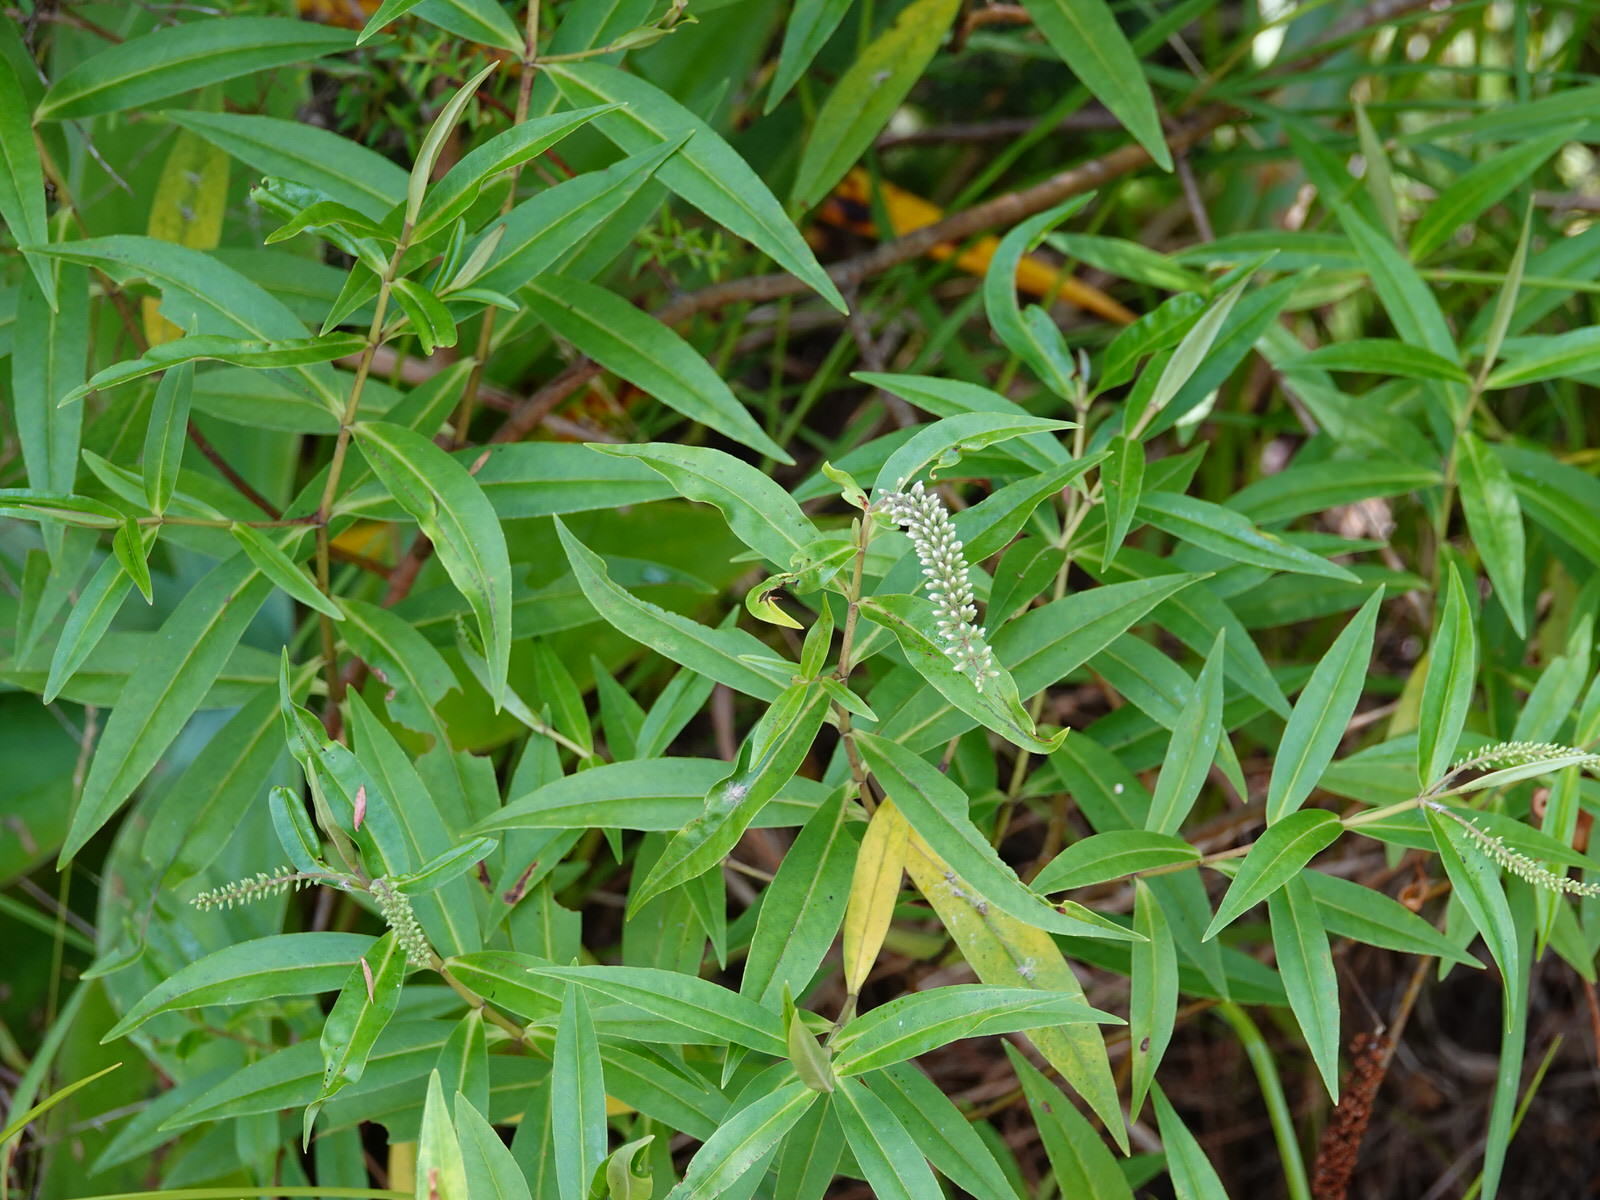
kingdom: Plantae
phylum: Tracheophyta
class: Magnoliopsida
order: Lamiales
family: Plantaginaceae
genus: Veronica
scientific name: Veronica stricta
